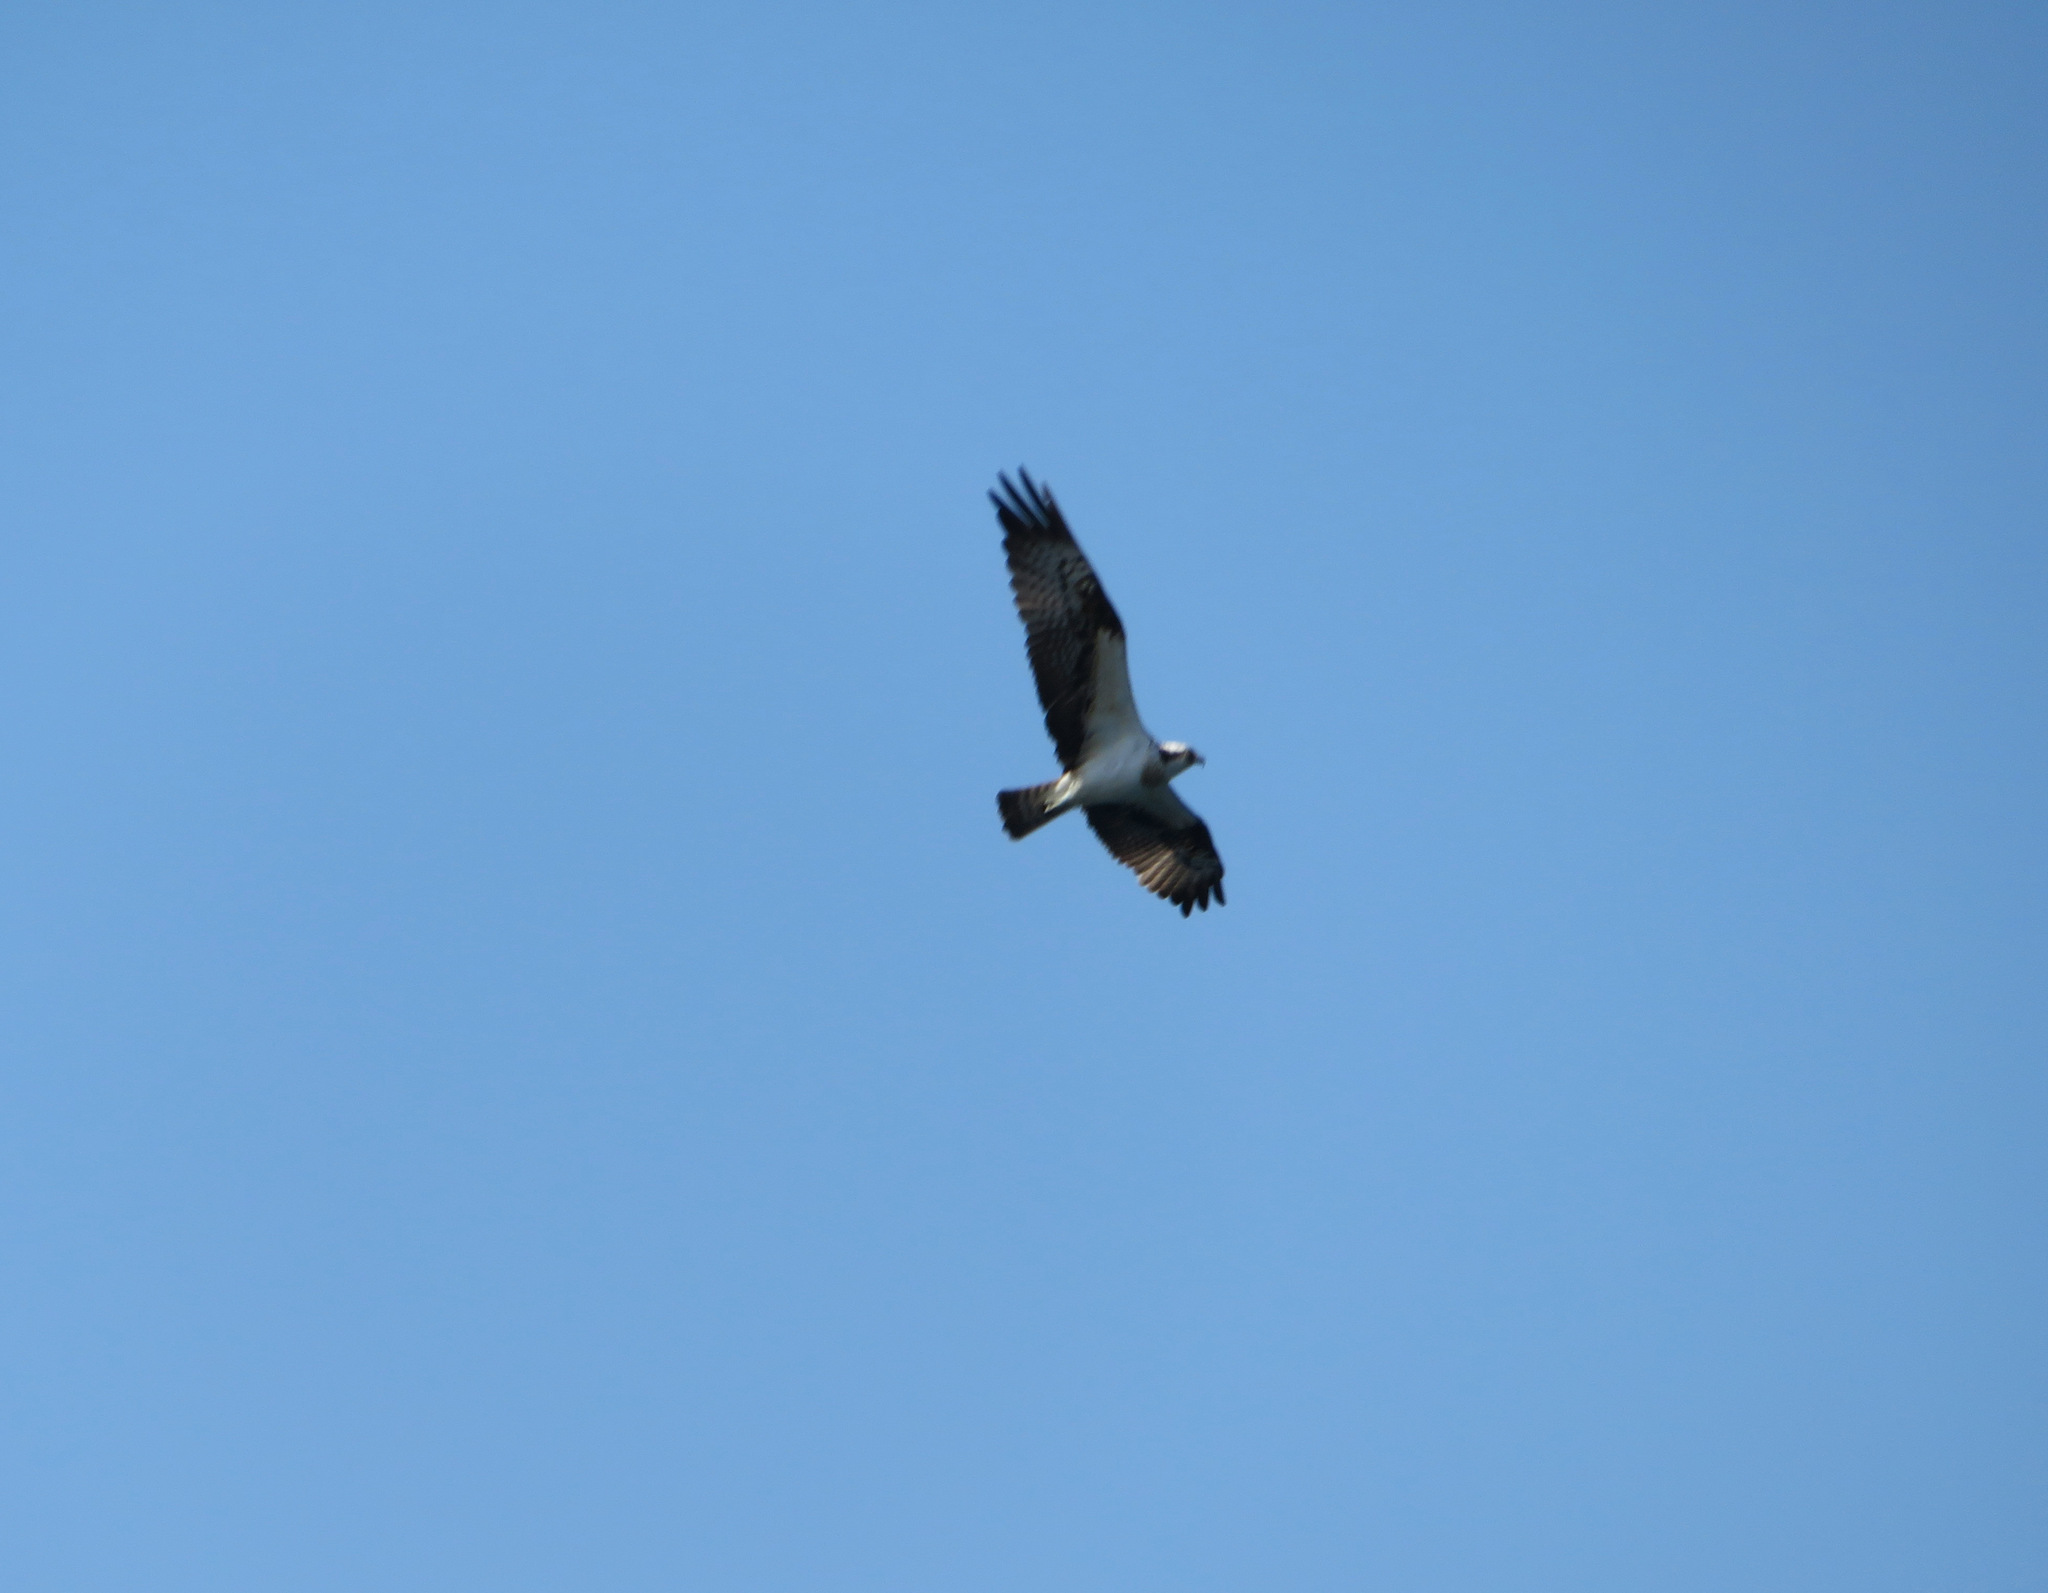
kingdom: Animalia
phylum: Chordata
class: Aves
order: Accipitriformes
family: Pandionidae
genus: Pandion
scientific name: Pandion haliaetus
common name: Osprey
